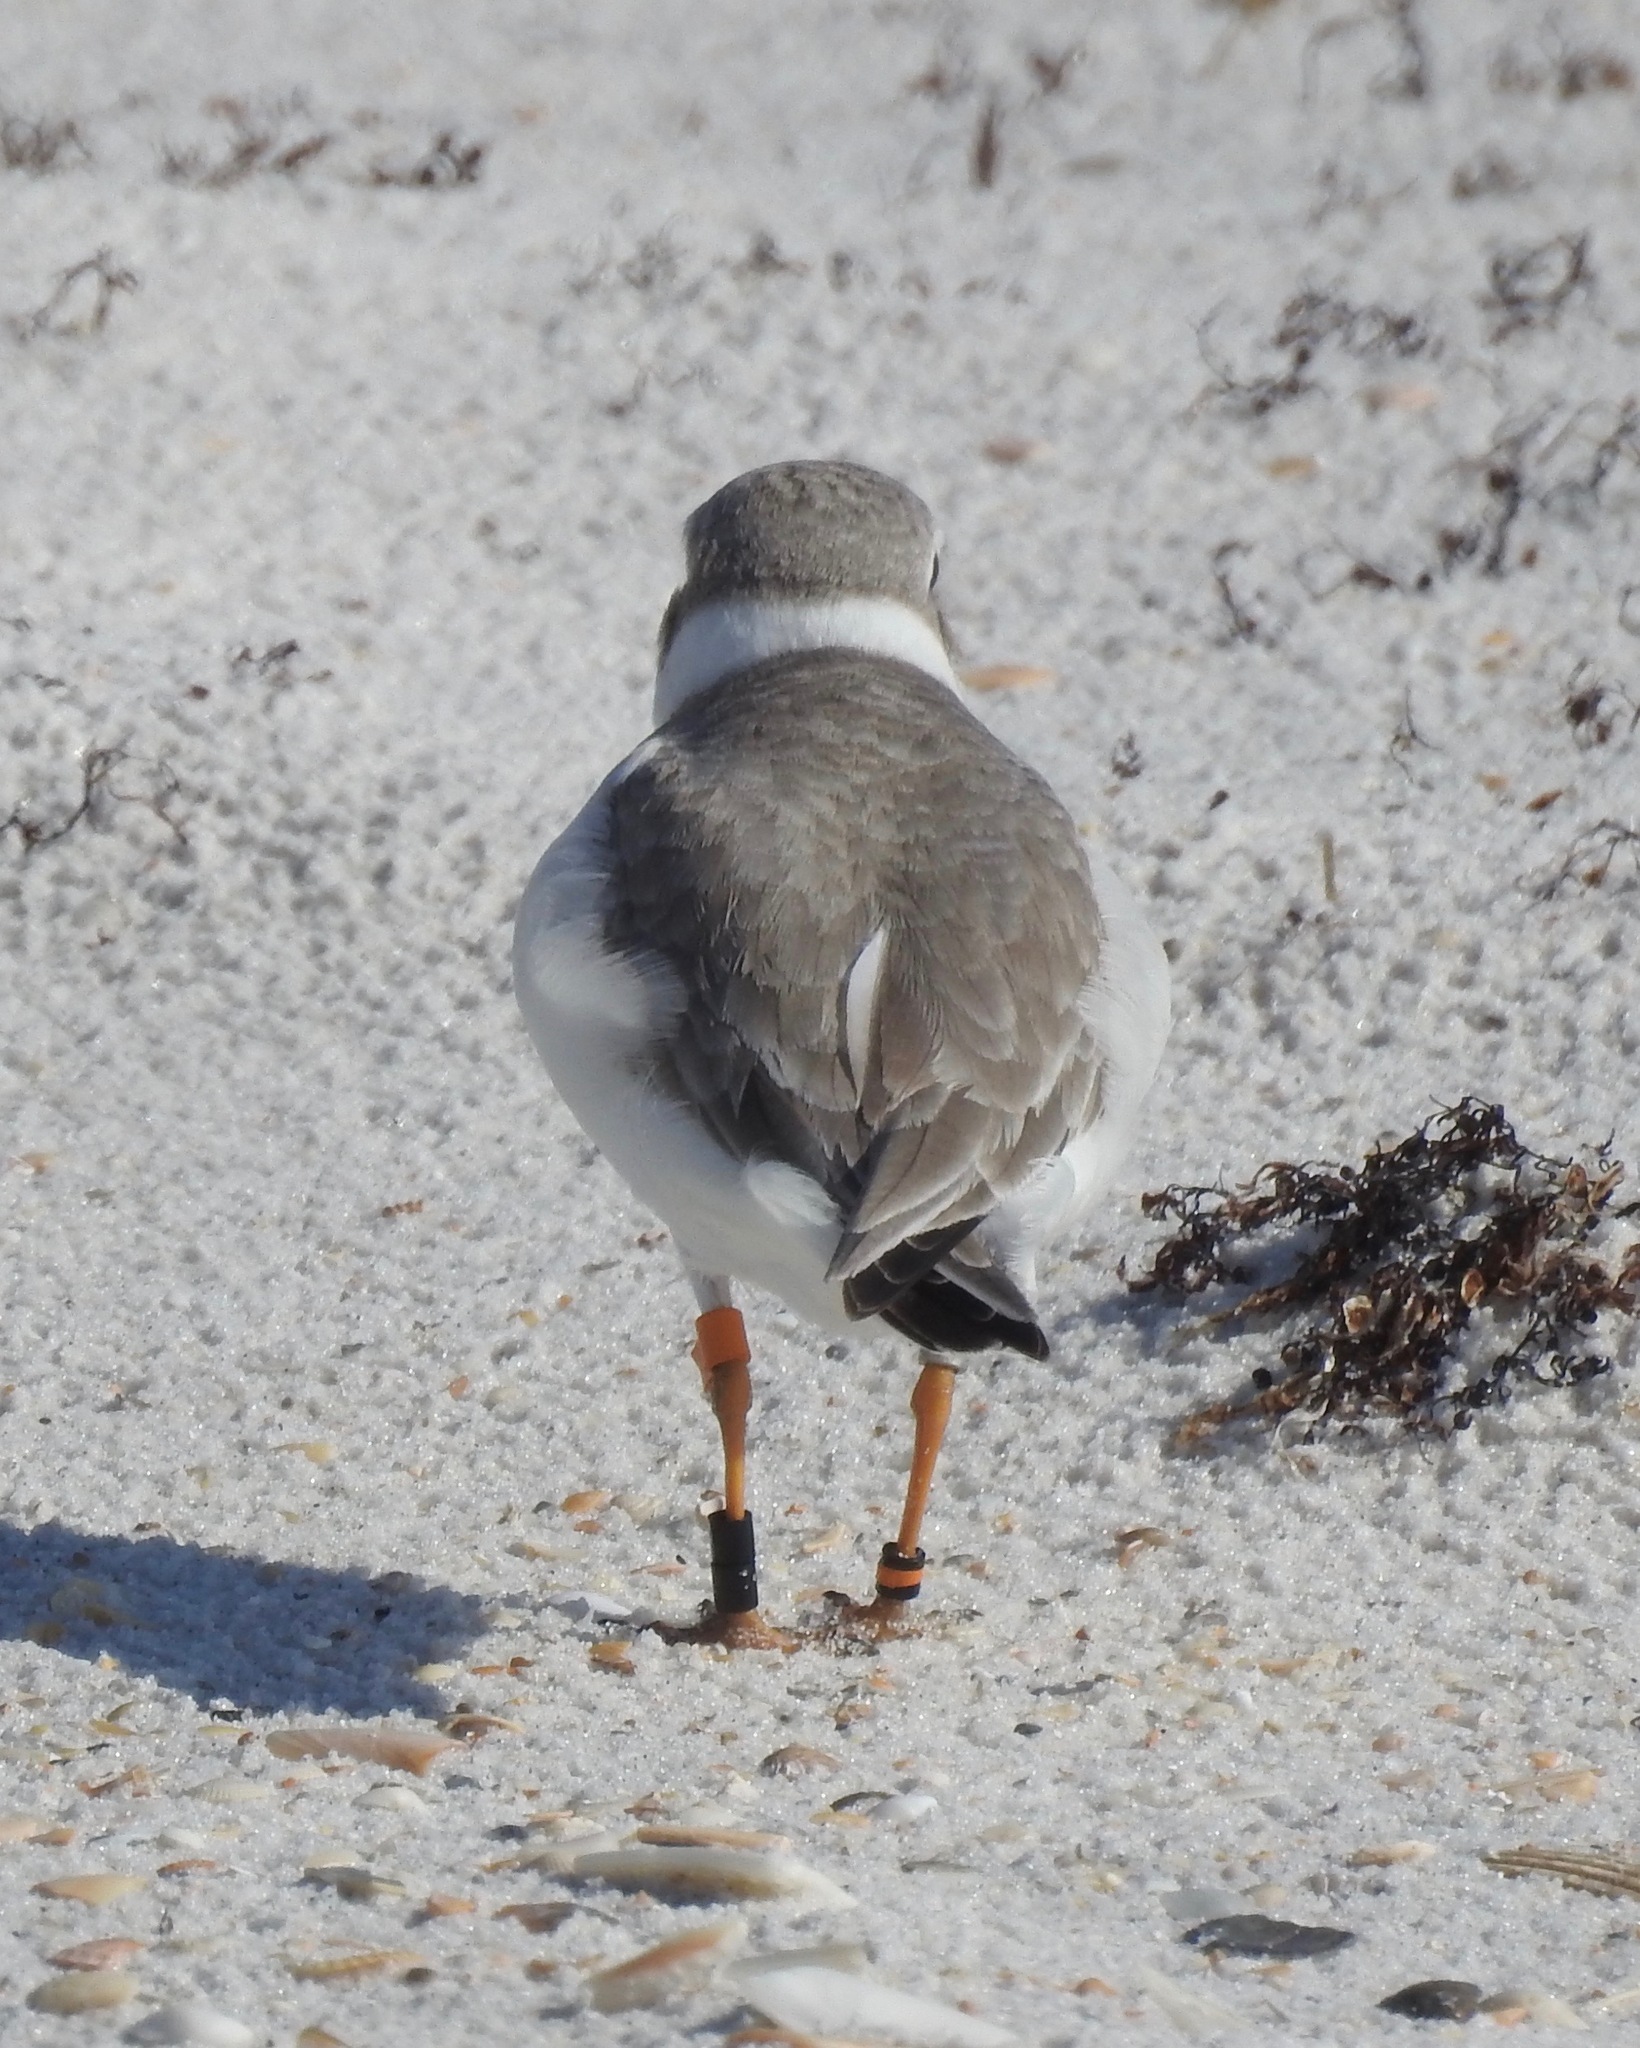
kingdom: Animalia
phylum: Chordata
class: Aves
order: Charadriiformes
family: Charadriidae
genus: Charadrius
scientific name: Charadrius melodus
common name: Piping plover
